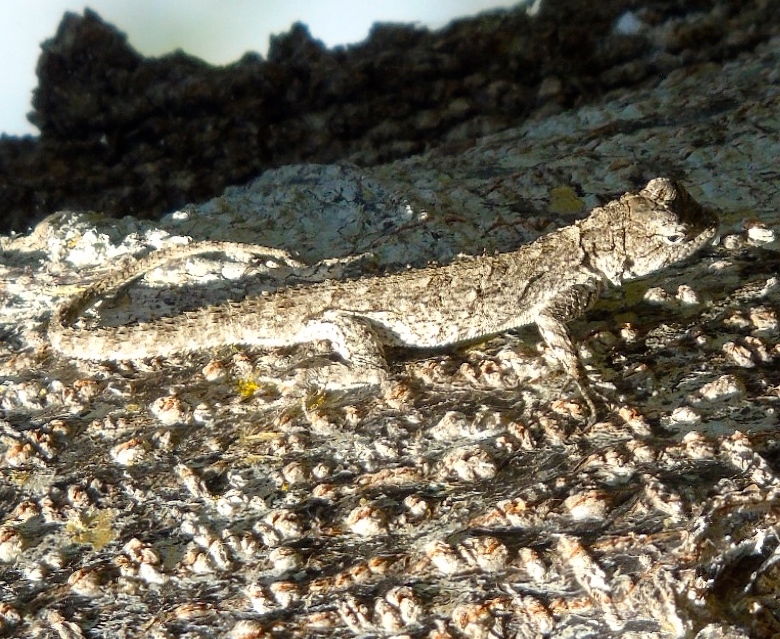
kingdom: Animalia
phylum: Chordata
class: Squamata
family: Phrynosomatidae
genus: Urosaurus
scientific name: Urosaurus
